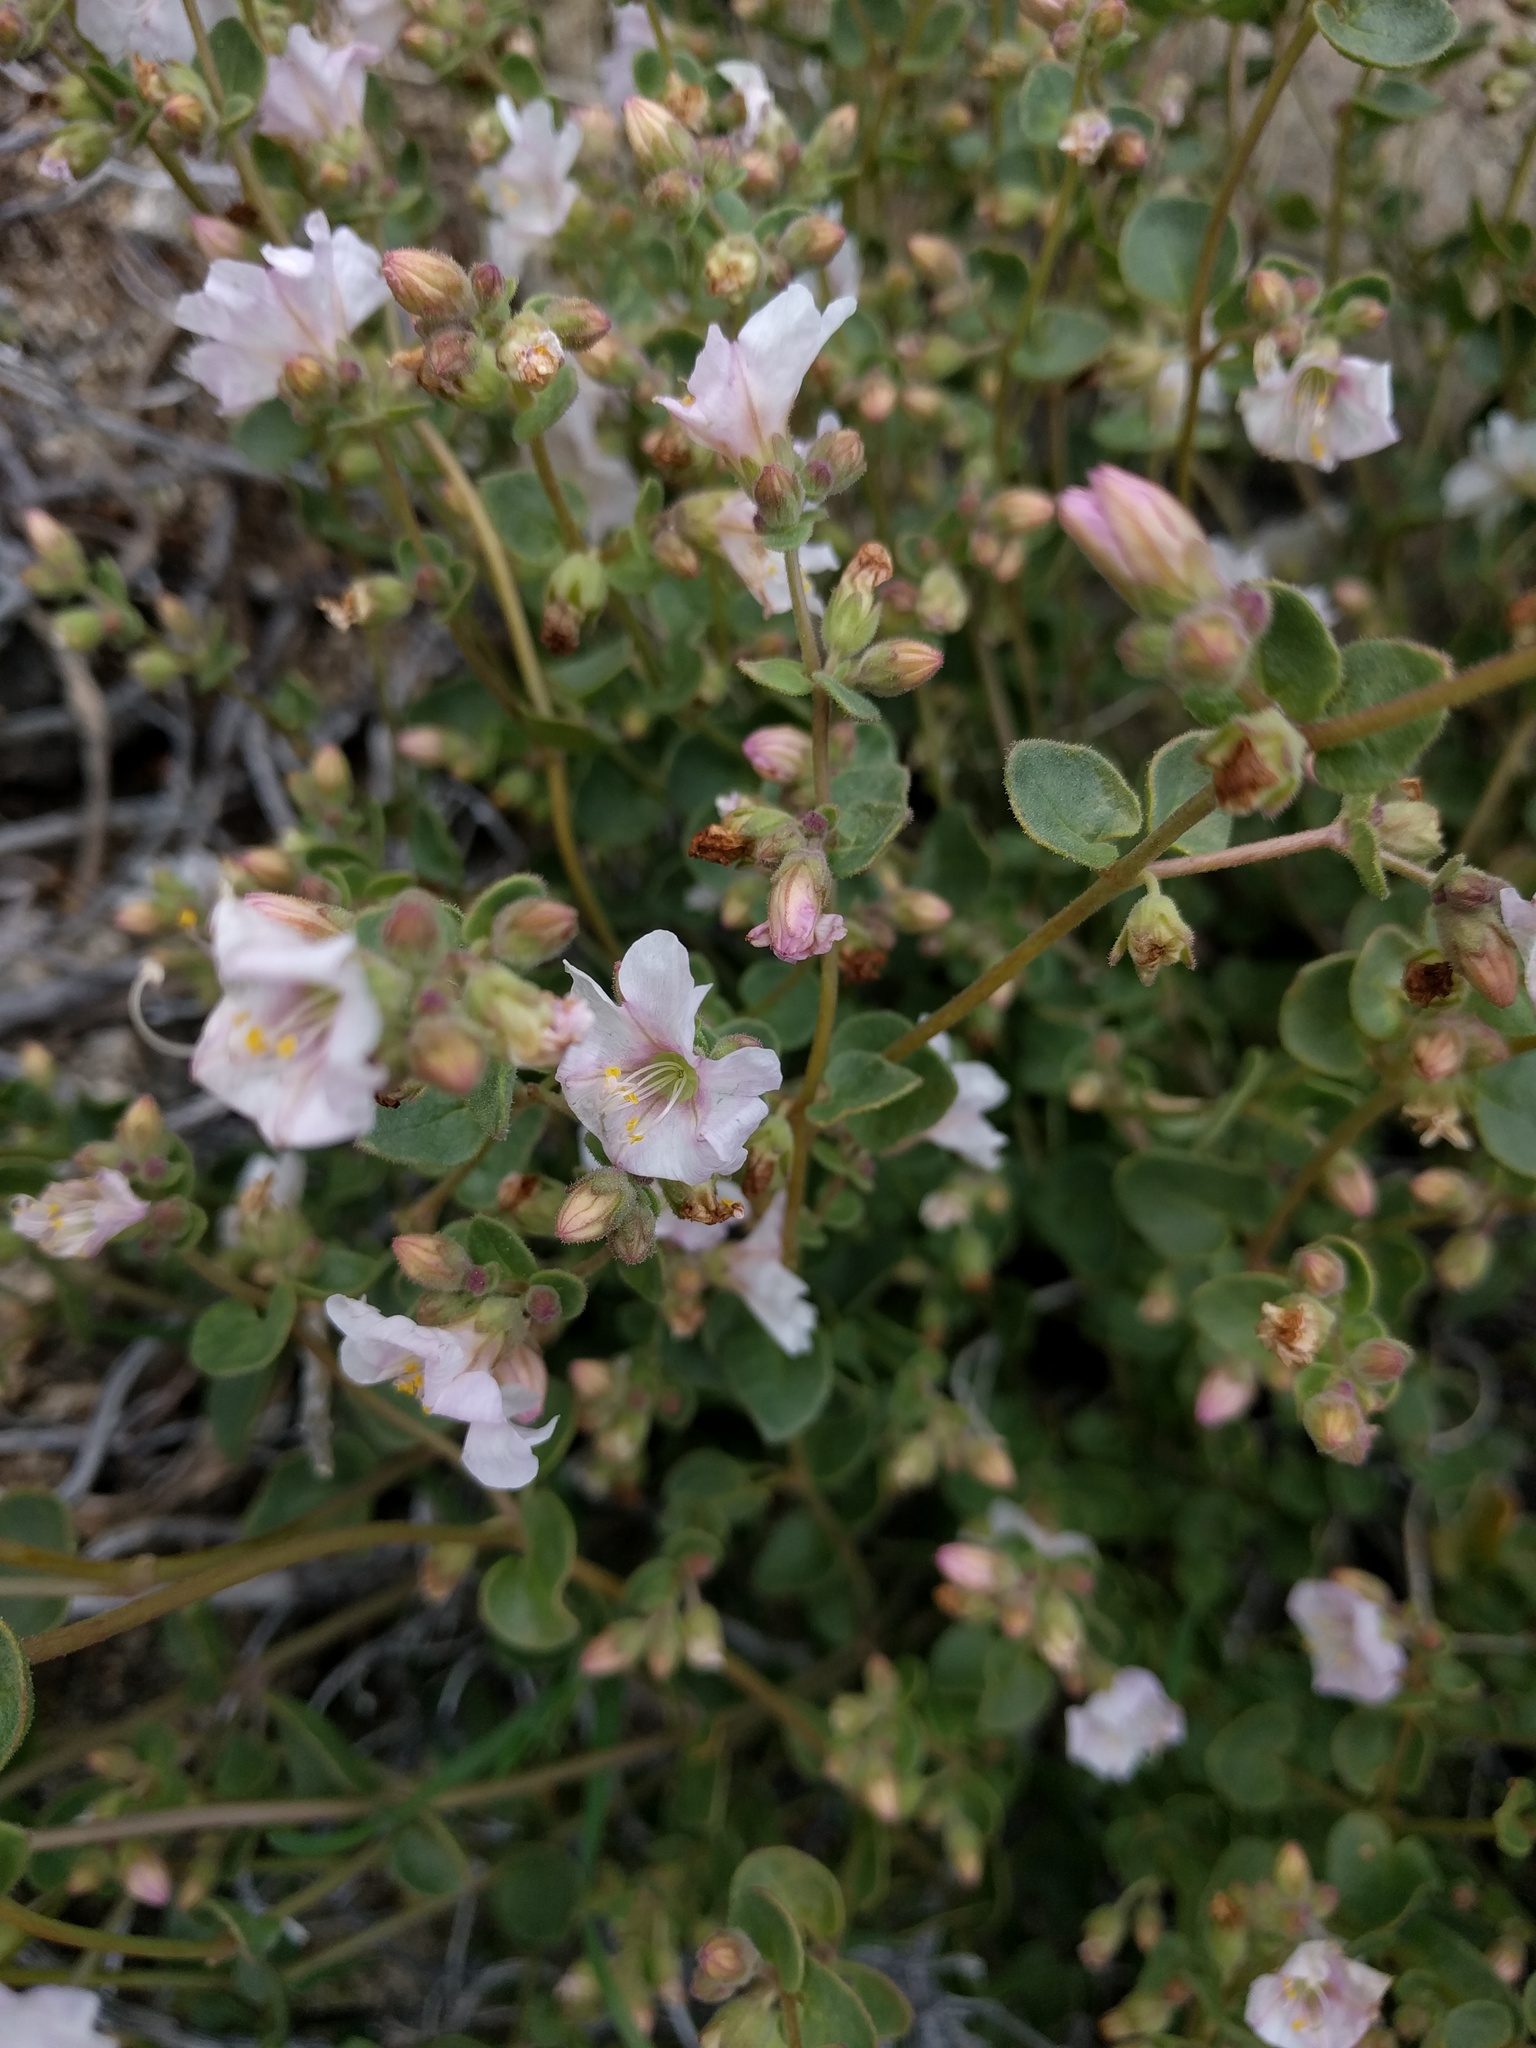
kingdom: Plantae
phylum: Tracheophyta
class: Magnoliopsida
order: Caryophyllales
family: Nyctaginaceae
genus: Mirabilis
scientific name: Mirabilis laevis
